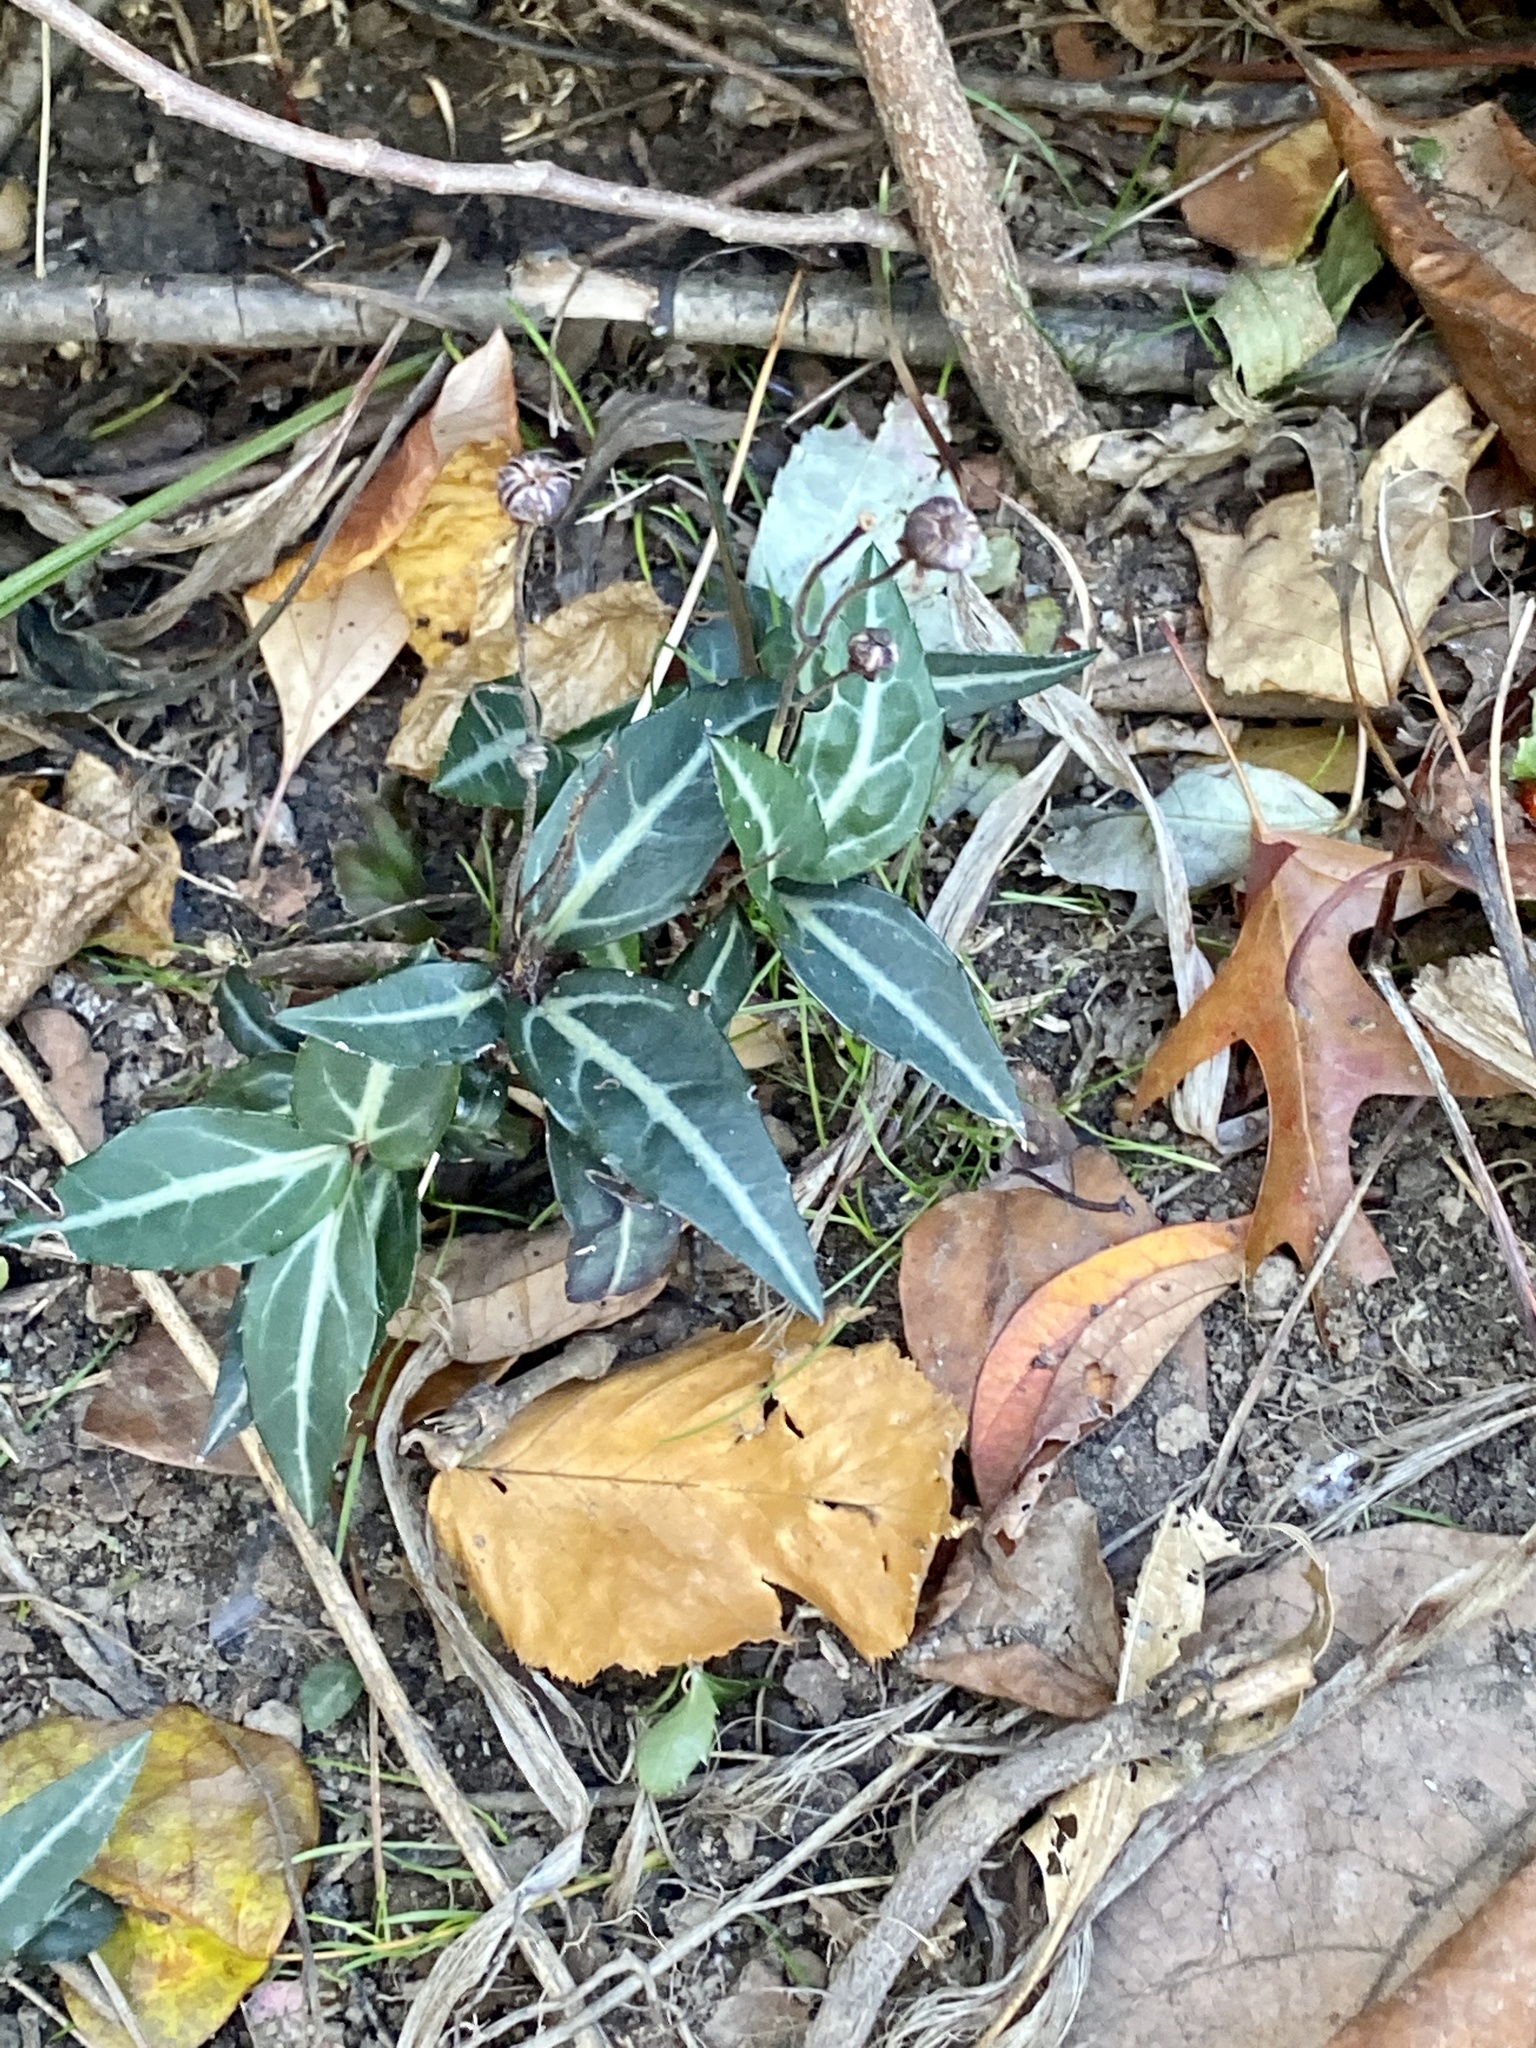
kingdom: Plantae
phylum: Tracheophyta
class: Magnoliopsida
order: Ericales
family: Ericaceae
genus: Chimaphila
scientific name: Chimaphila maculata
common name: Spotted pipsissewa
